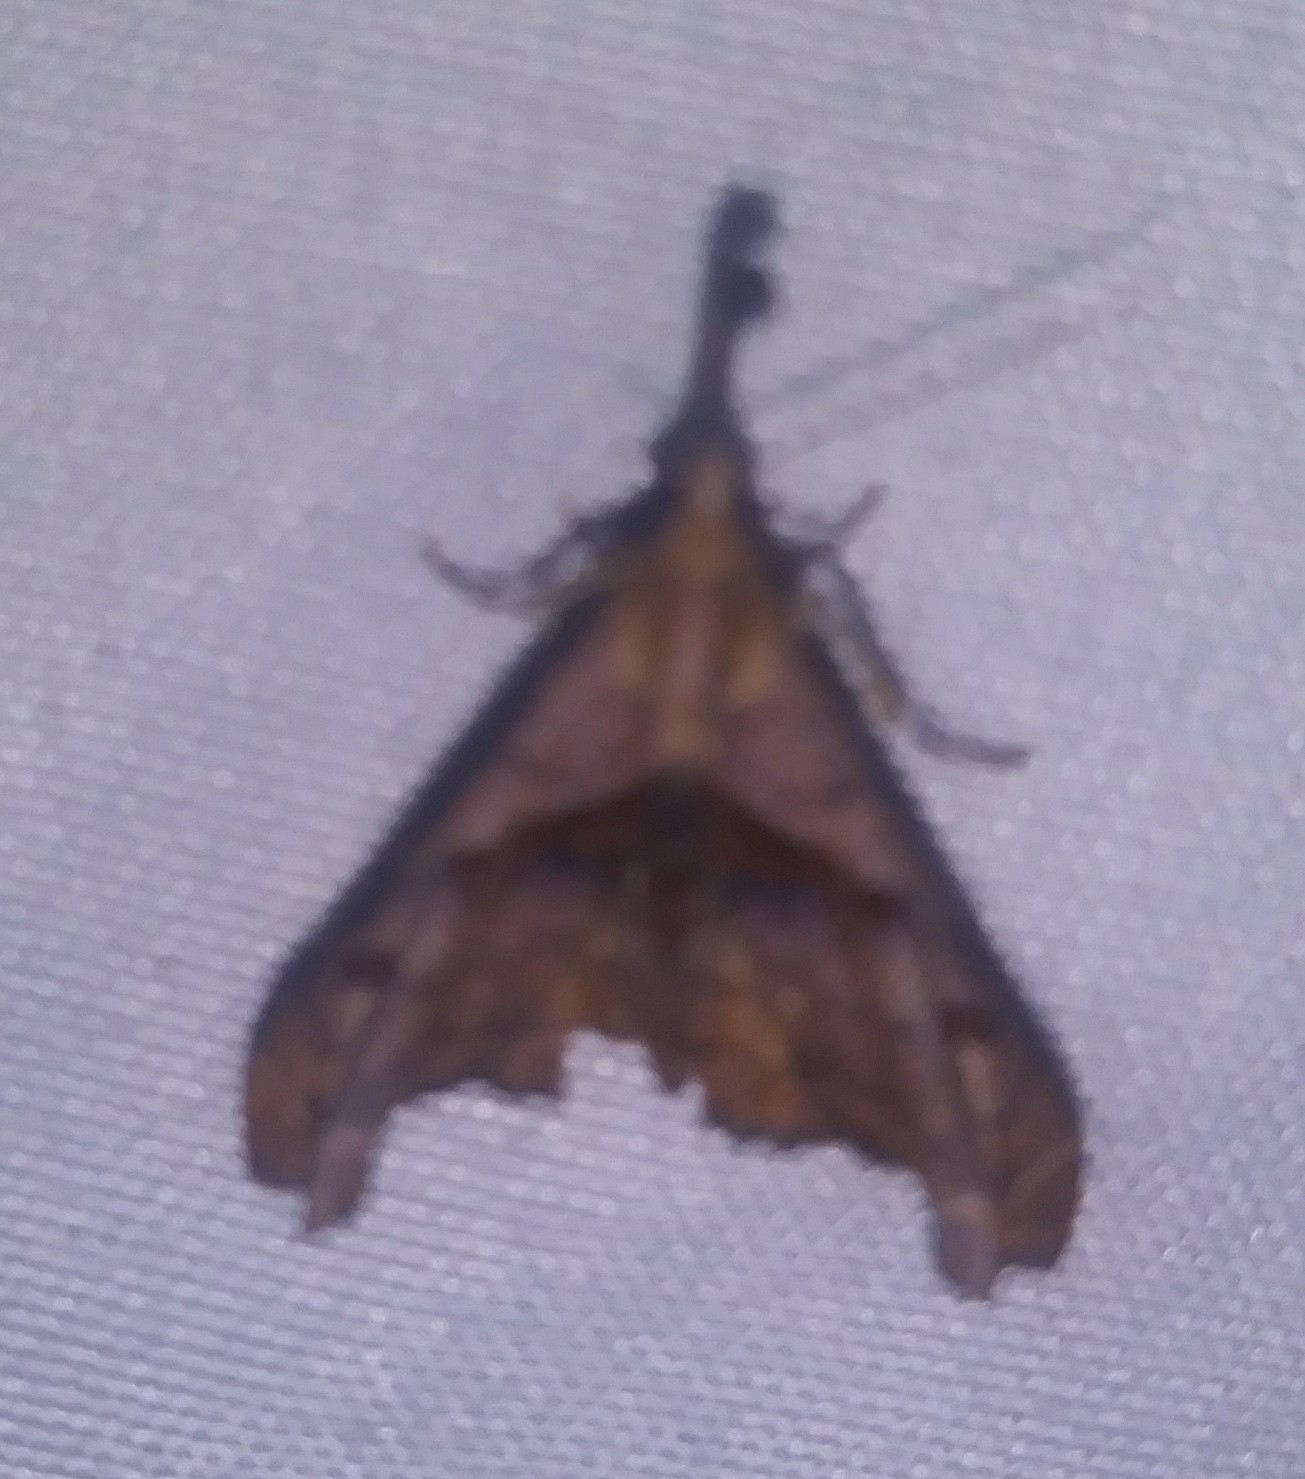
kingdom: Animalia
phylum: Arthropoda
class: Insecta
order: Lepidoptera
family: Erebidae
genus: Palthis
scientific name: Palthis angulalis
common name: Dark-spotted palthis moth
